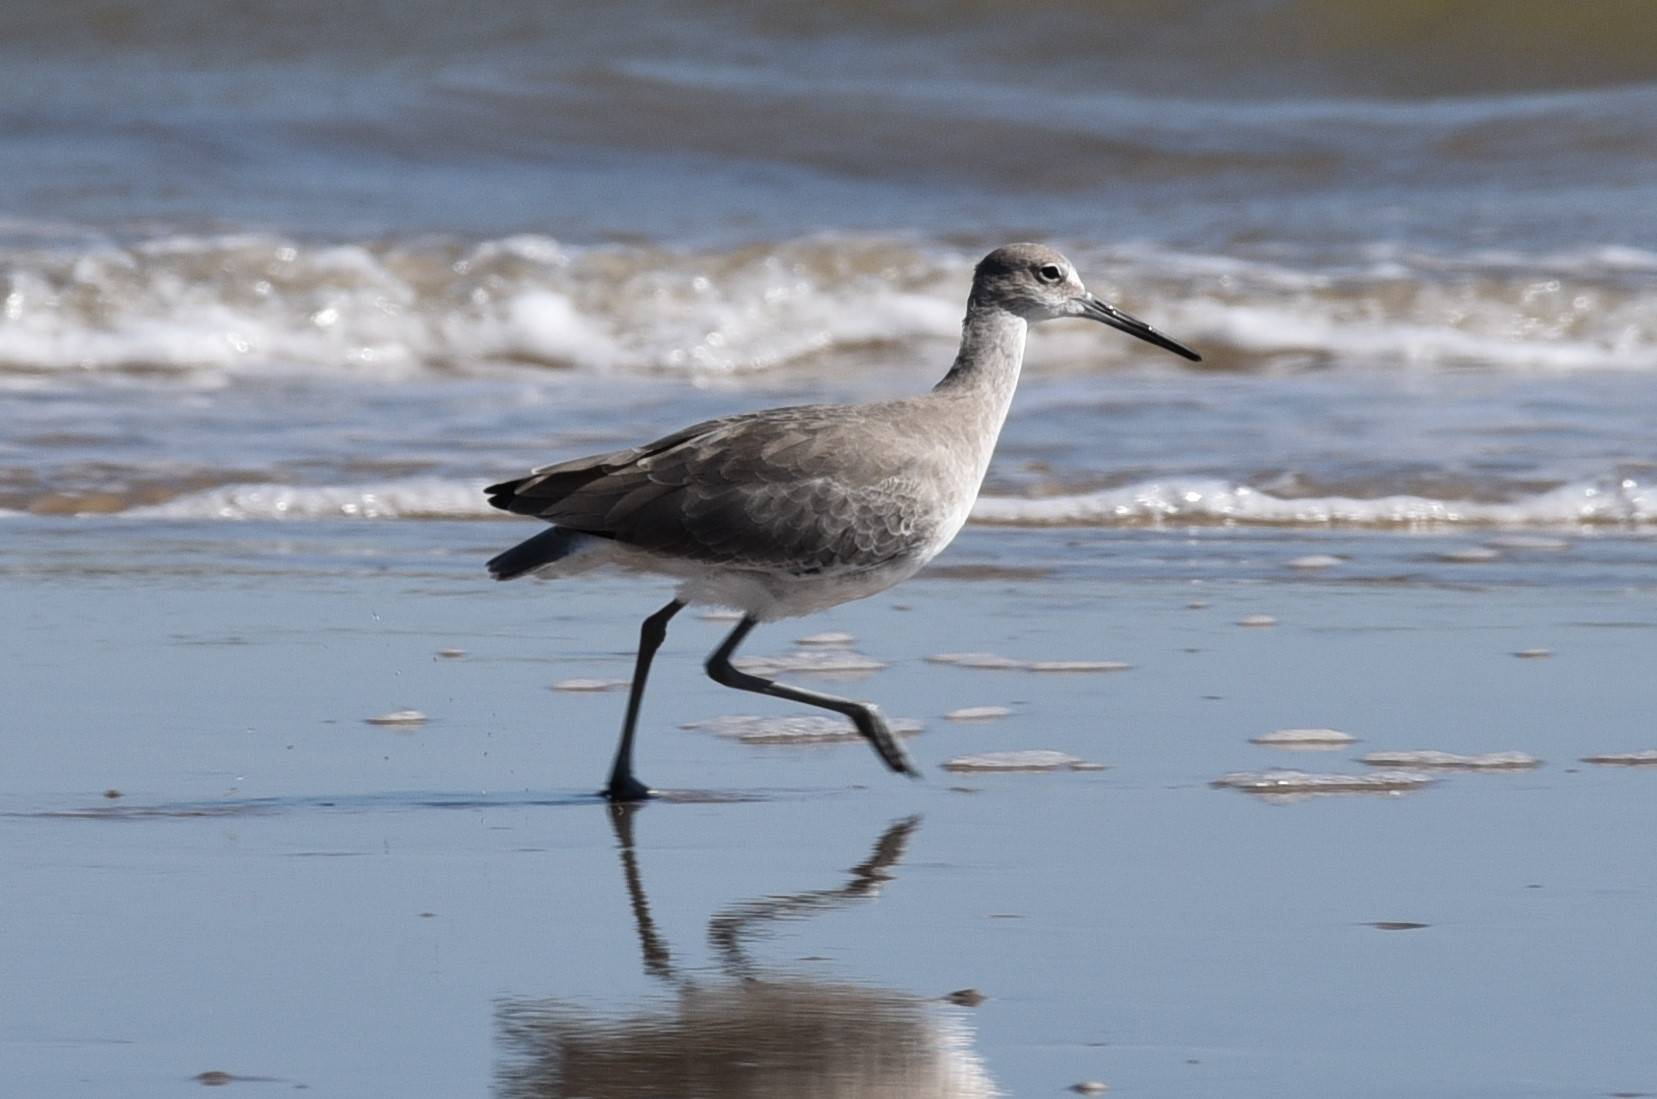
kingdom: Animalia
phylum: Chordata
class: Aves
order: Charadriiformes
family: Scolopacidae
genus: Tringa
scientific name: Tringa semipalmata
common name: Willet
